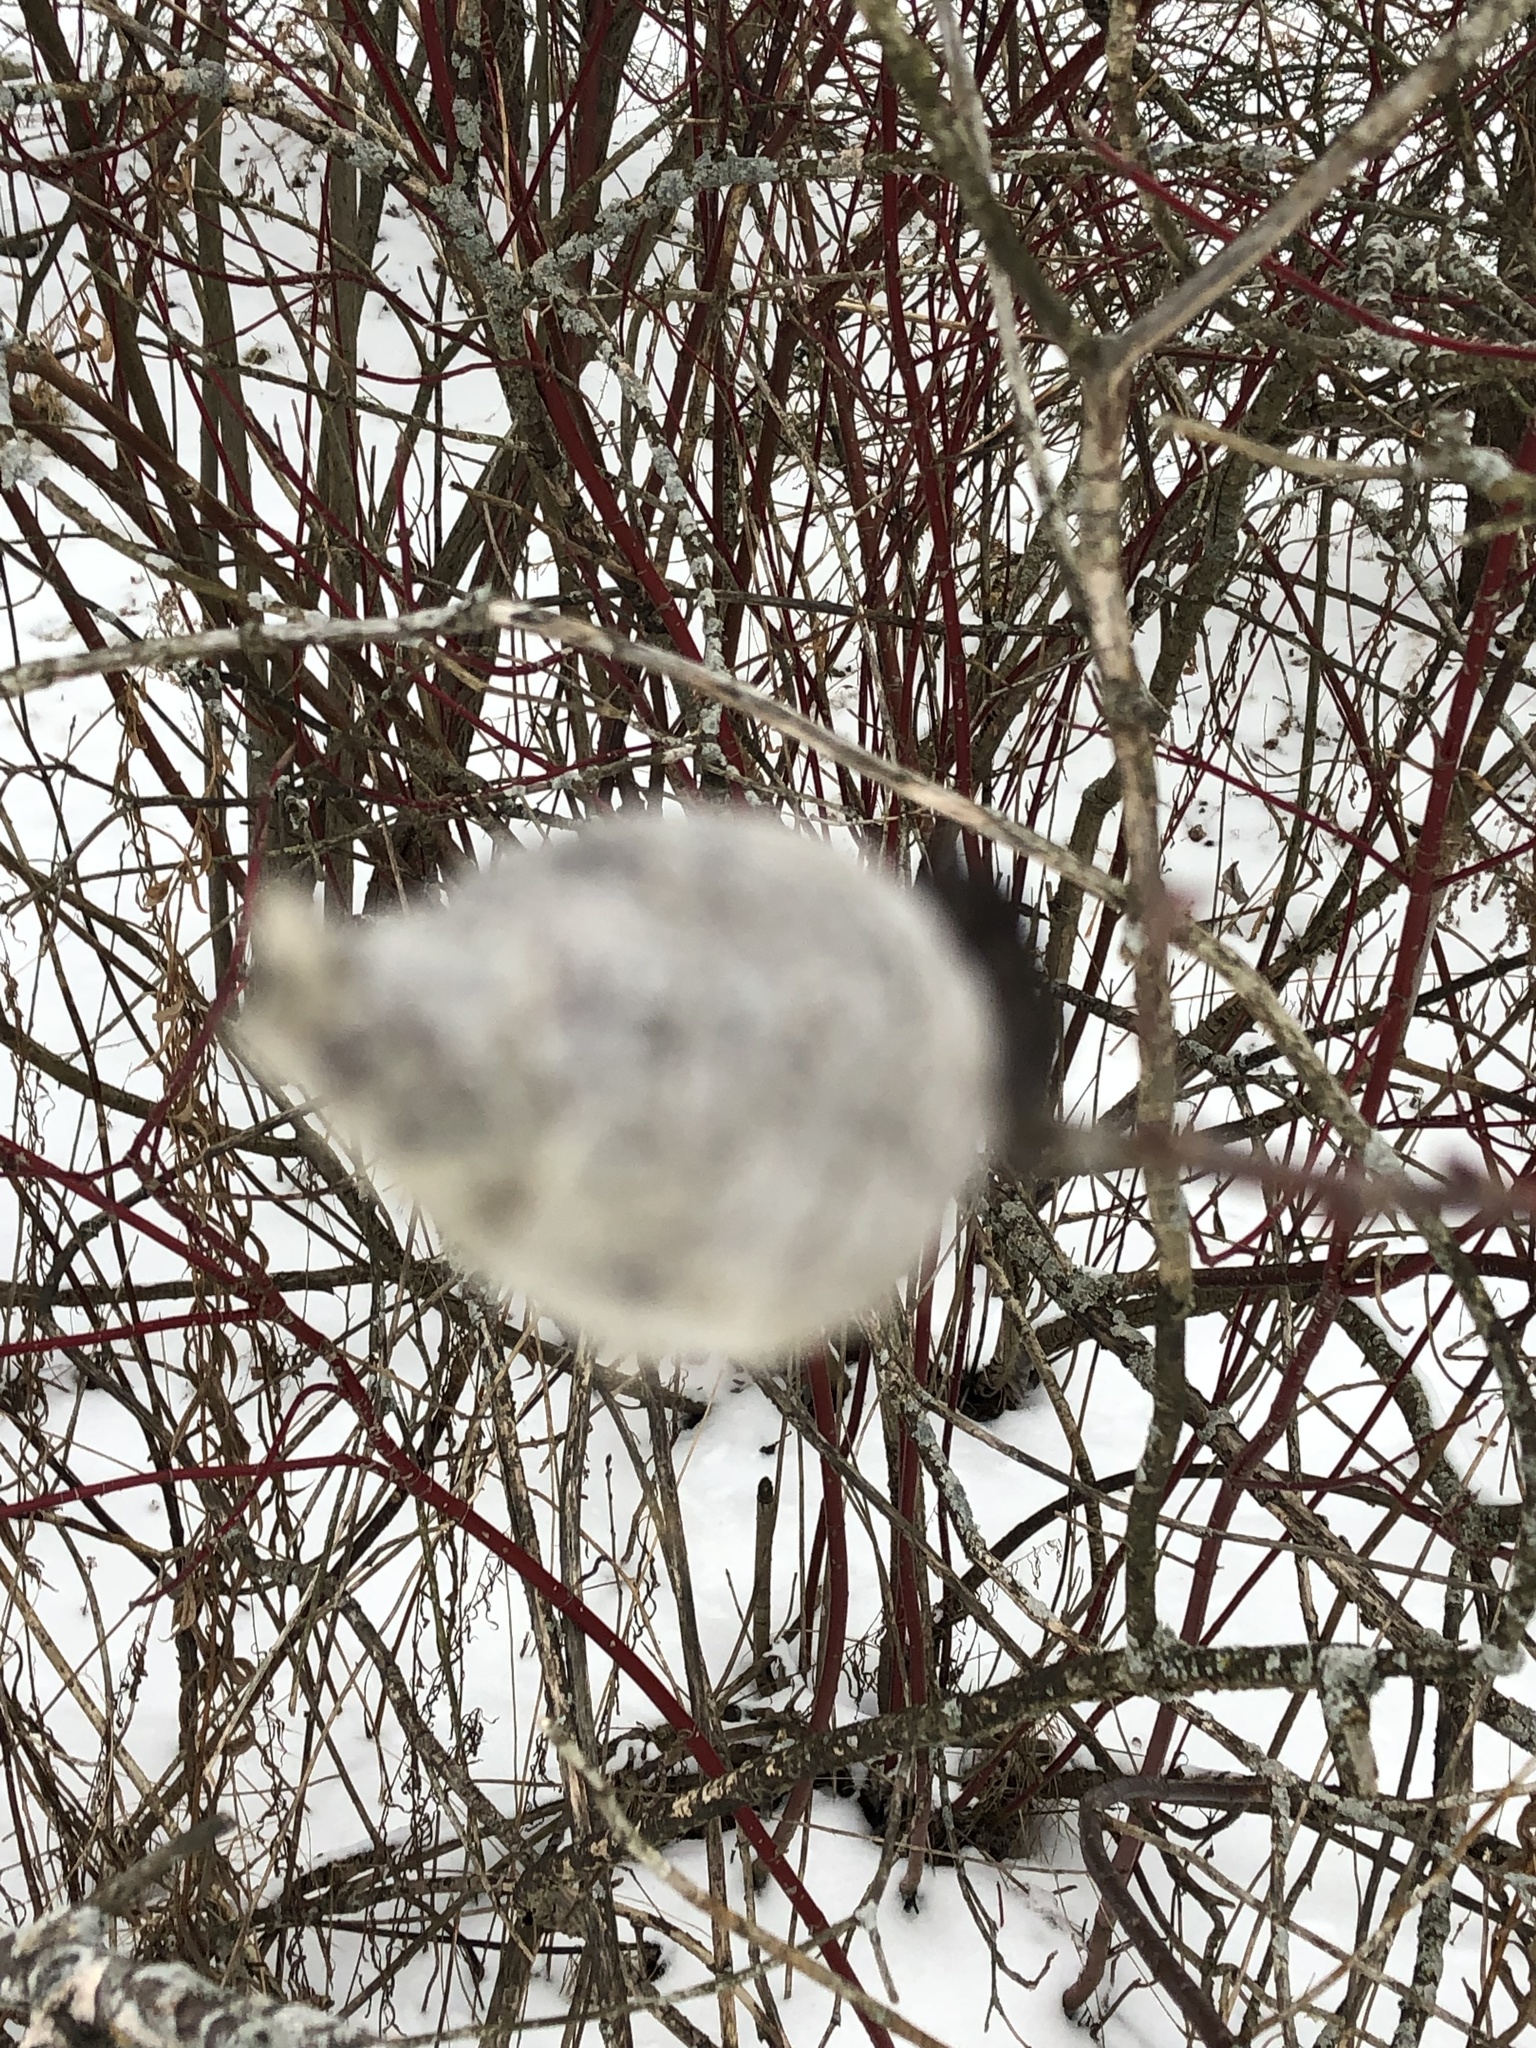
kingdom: Animalia
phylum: Arthropoda
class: Insecta
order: Diptera
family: Cecidomyiidae
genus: Rabdophaga
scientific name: Rabdophaga strobiloides
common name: Willow pinecone gall midge
